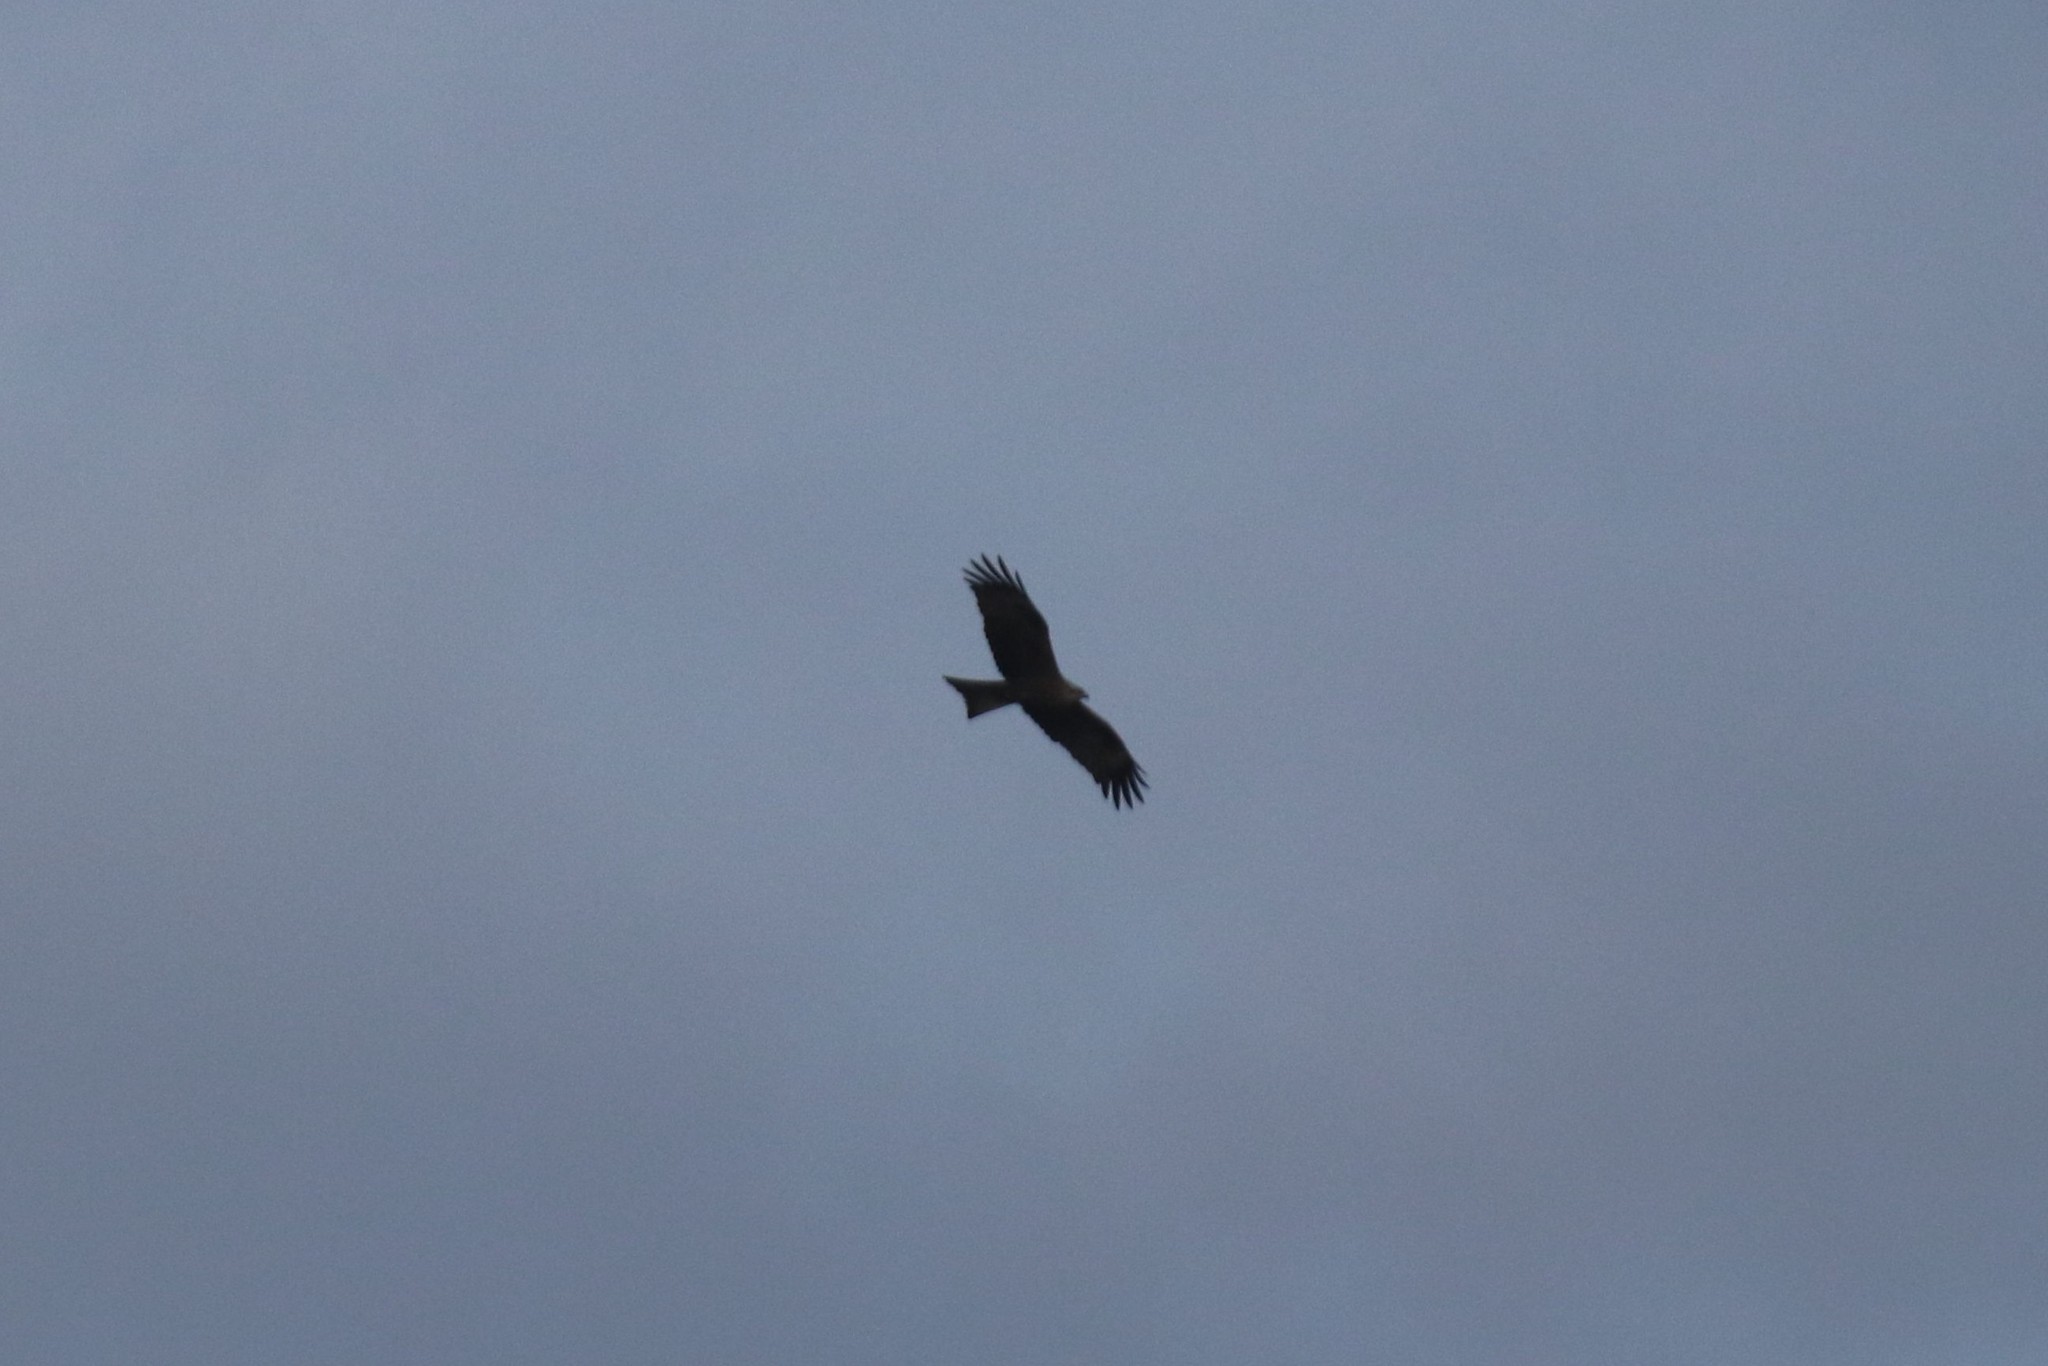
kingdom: Animalia
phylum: Chordata
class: Aves
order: Accipitriformes
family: Accipitridae
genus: Milvus
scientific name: Milvus migrans
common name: Black kite
